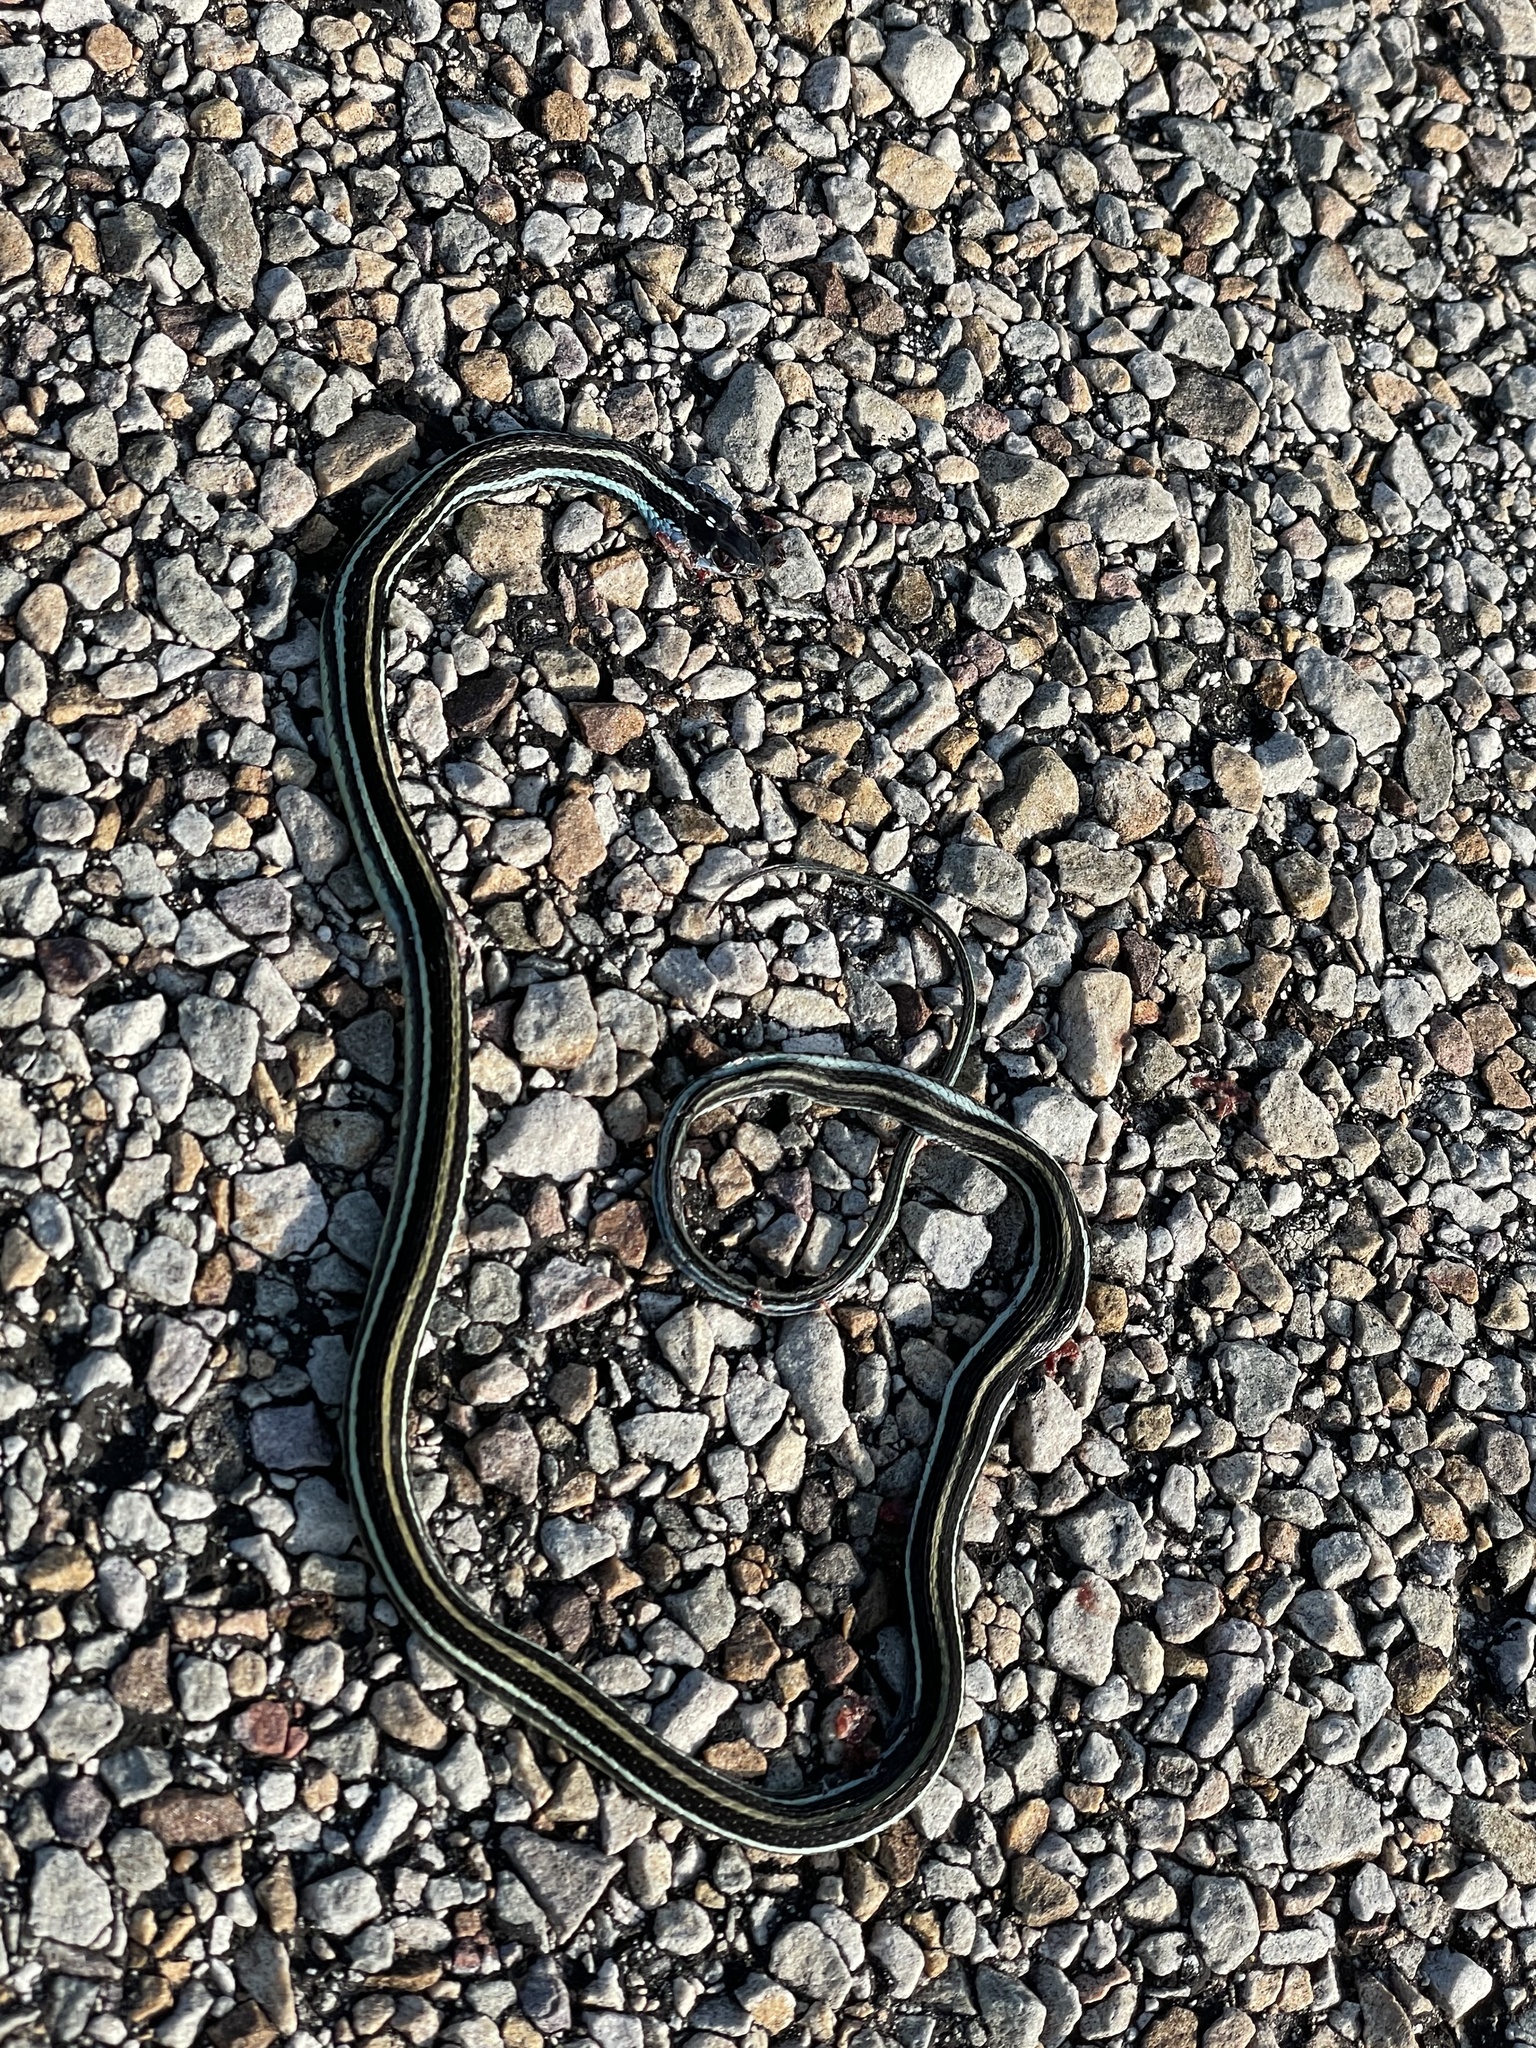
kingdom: Animalia
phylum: Chordata
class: Squamata
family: Colubridae
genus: Thamnophis
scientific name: Thamnophis proximus
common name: Western ribbon snake
